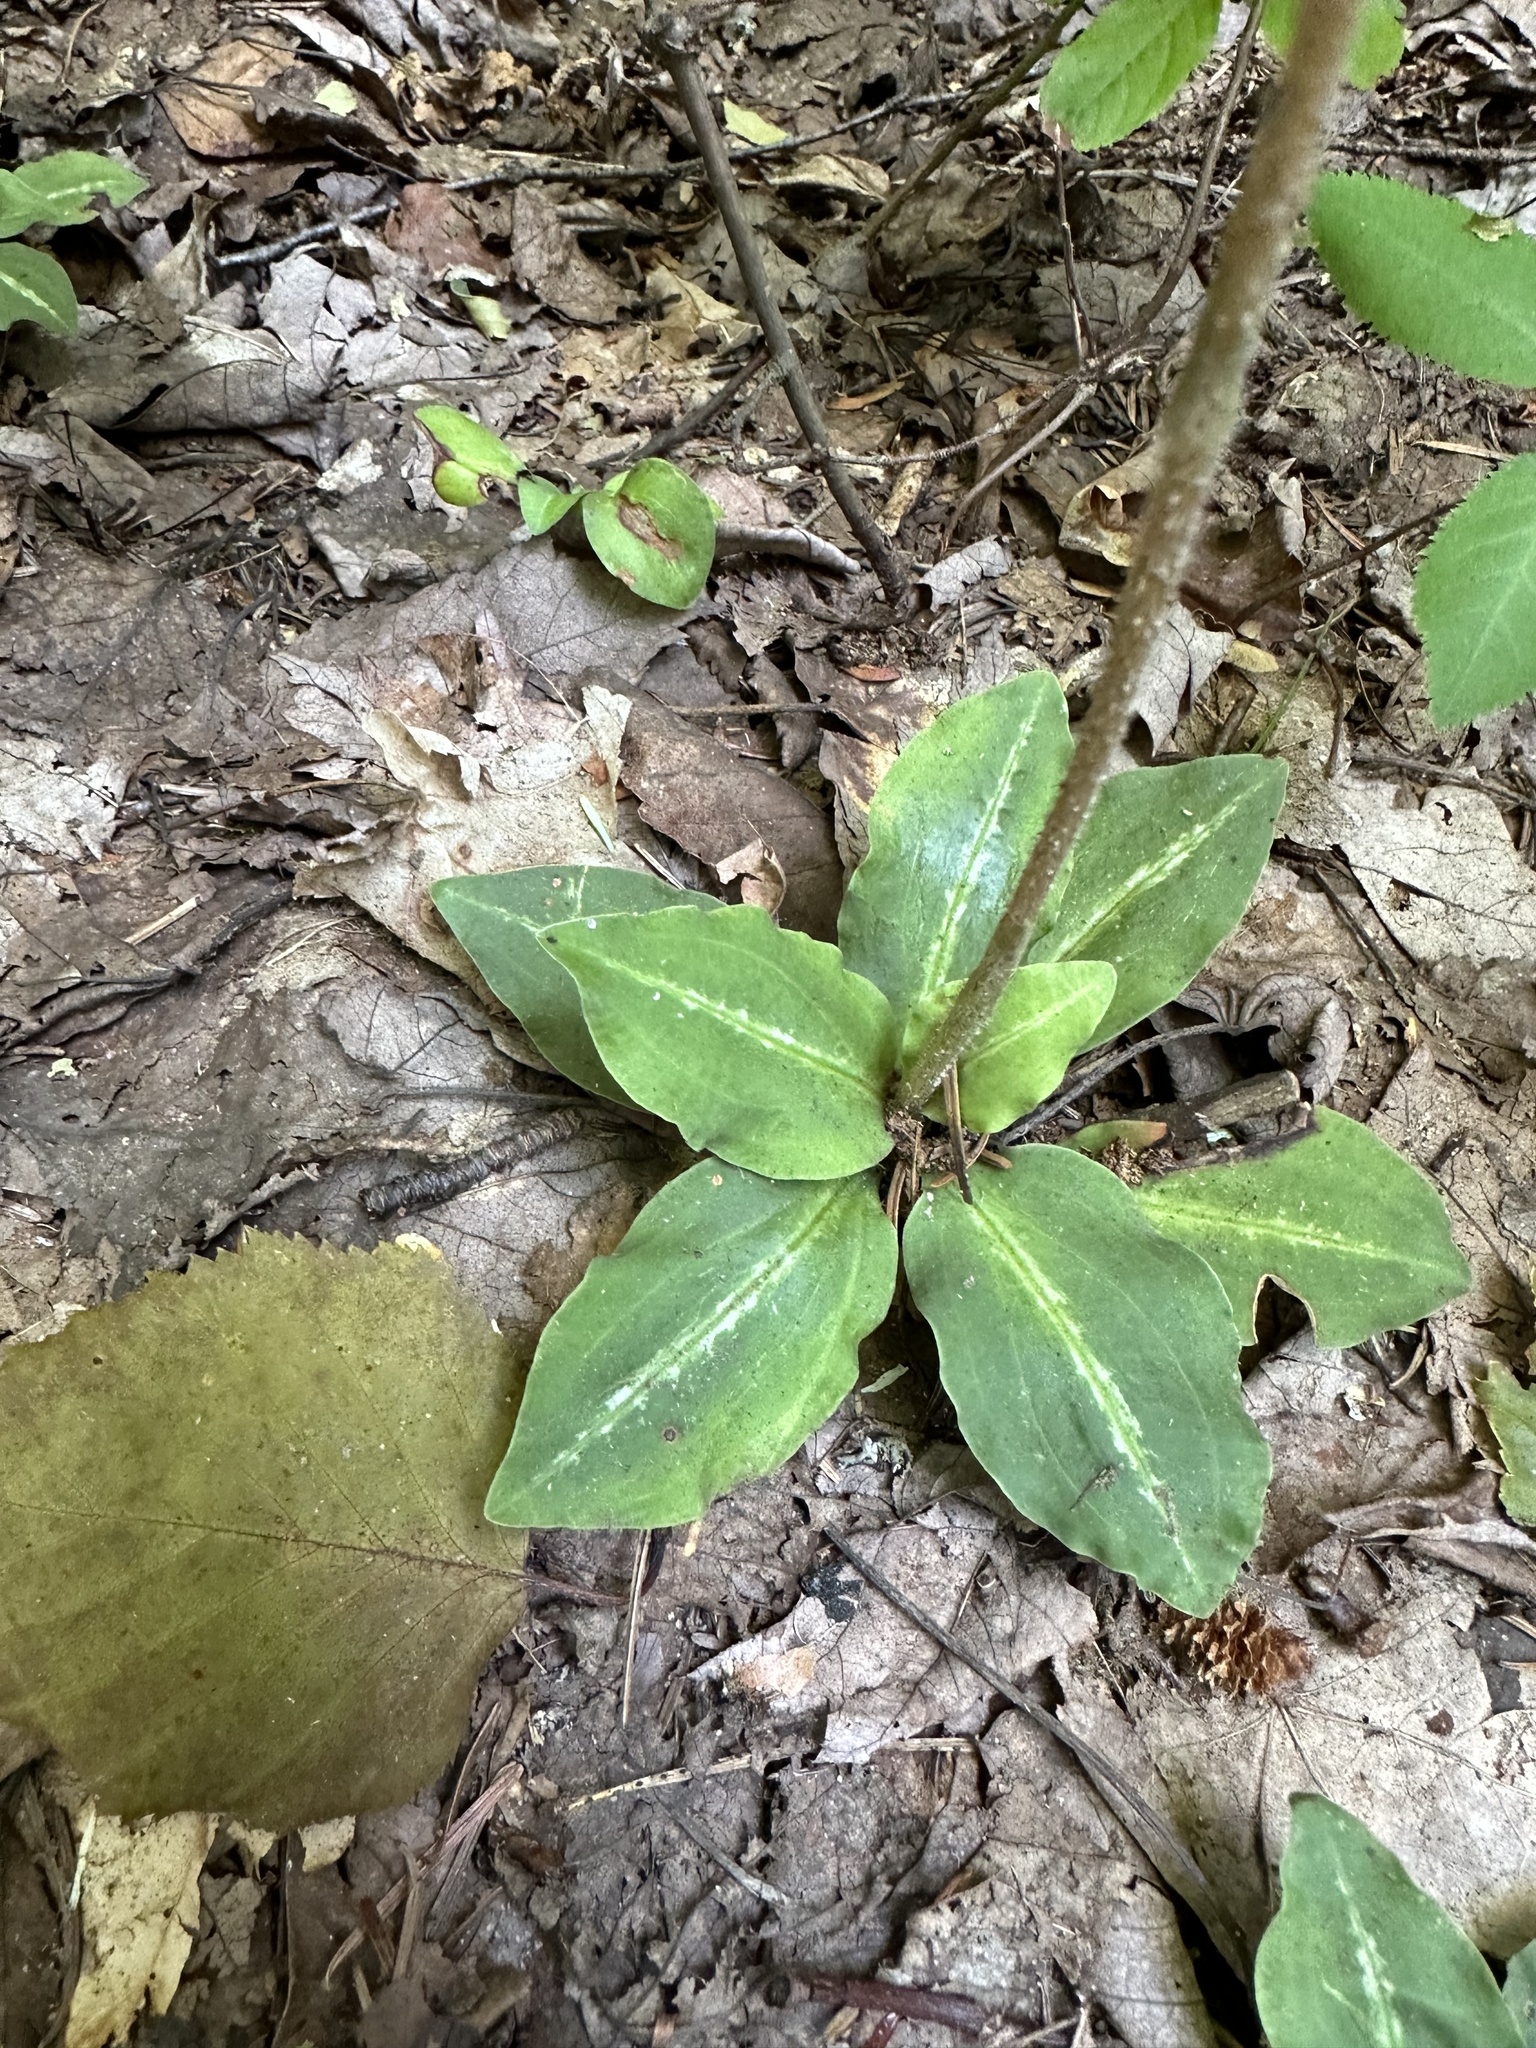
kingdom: Plantae
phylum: Tracheophyta
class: Liliopsida
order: Asparagales
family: Orchidaceae
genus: Goodyera
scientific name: Goodyera oblongifolia
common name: Giant rattlesnake-plantain
